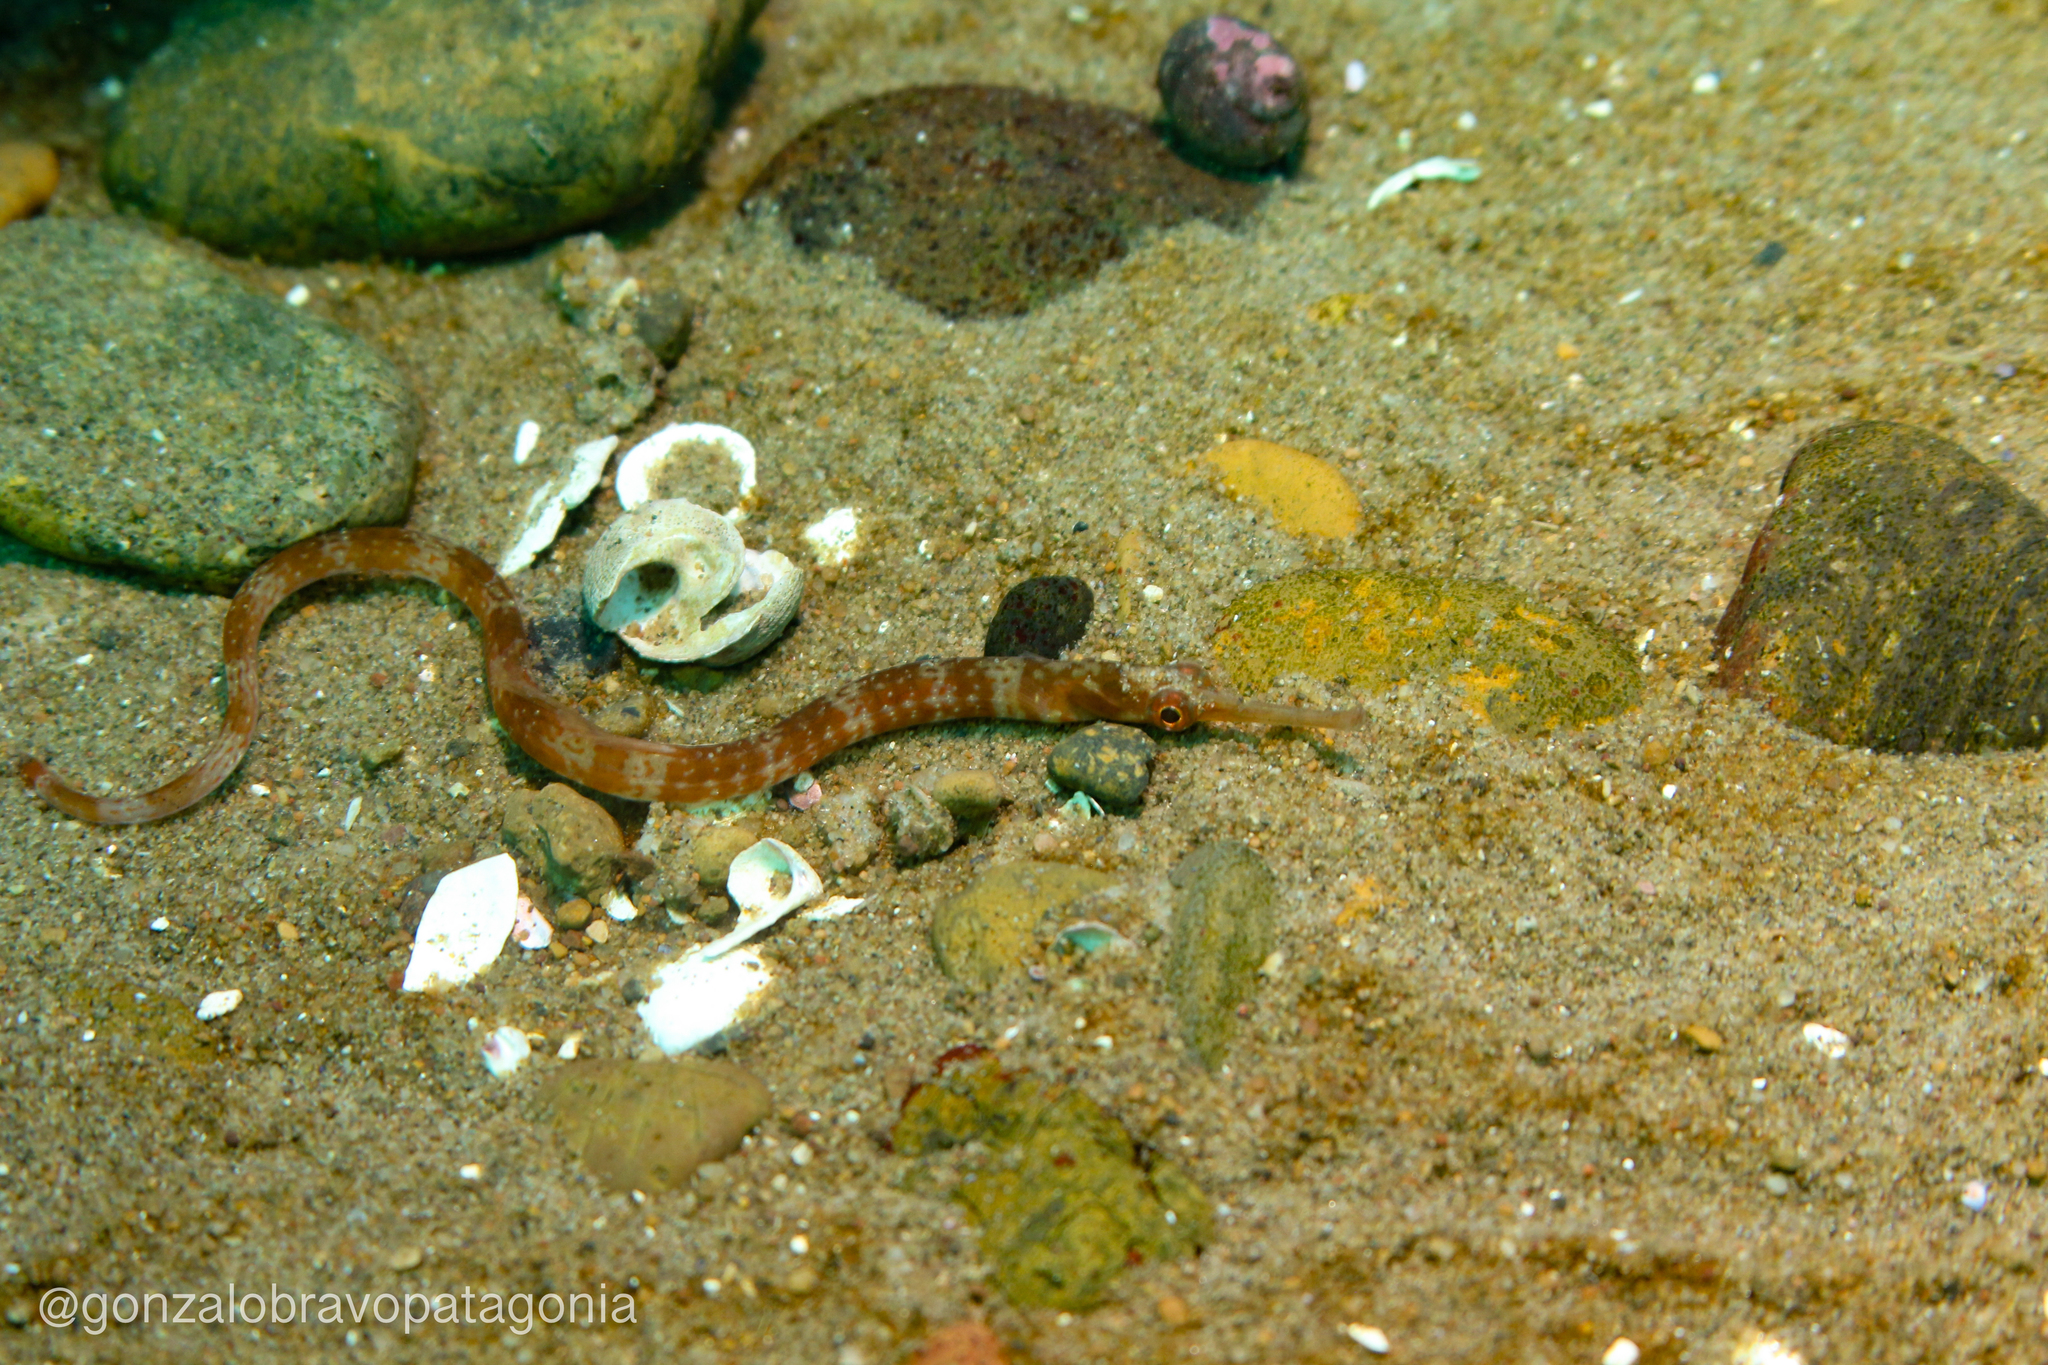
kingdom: Animalia
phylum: Chordata
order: Syngnathiformes
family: Syngnathidae
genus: Leptonotus
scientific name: Leptonotus vincentae
